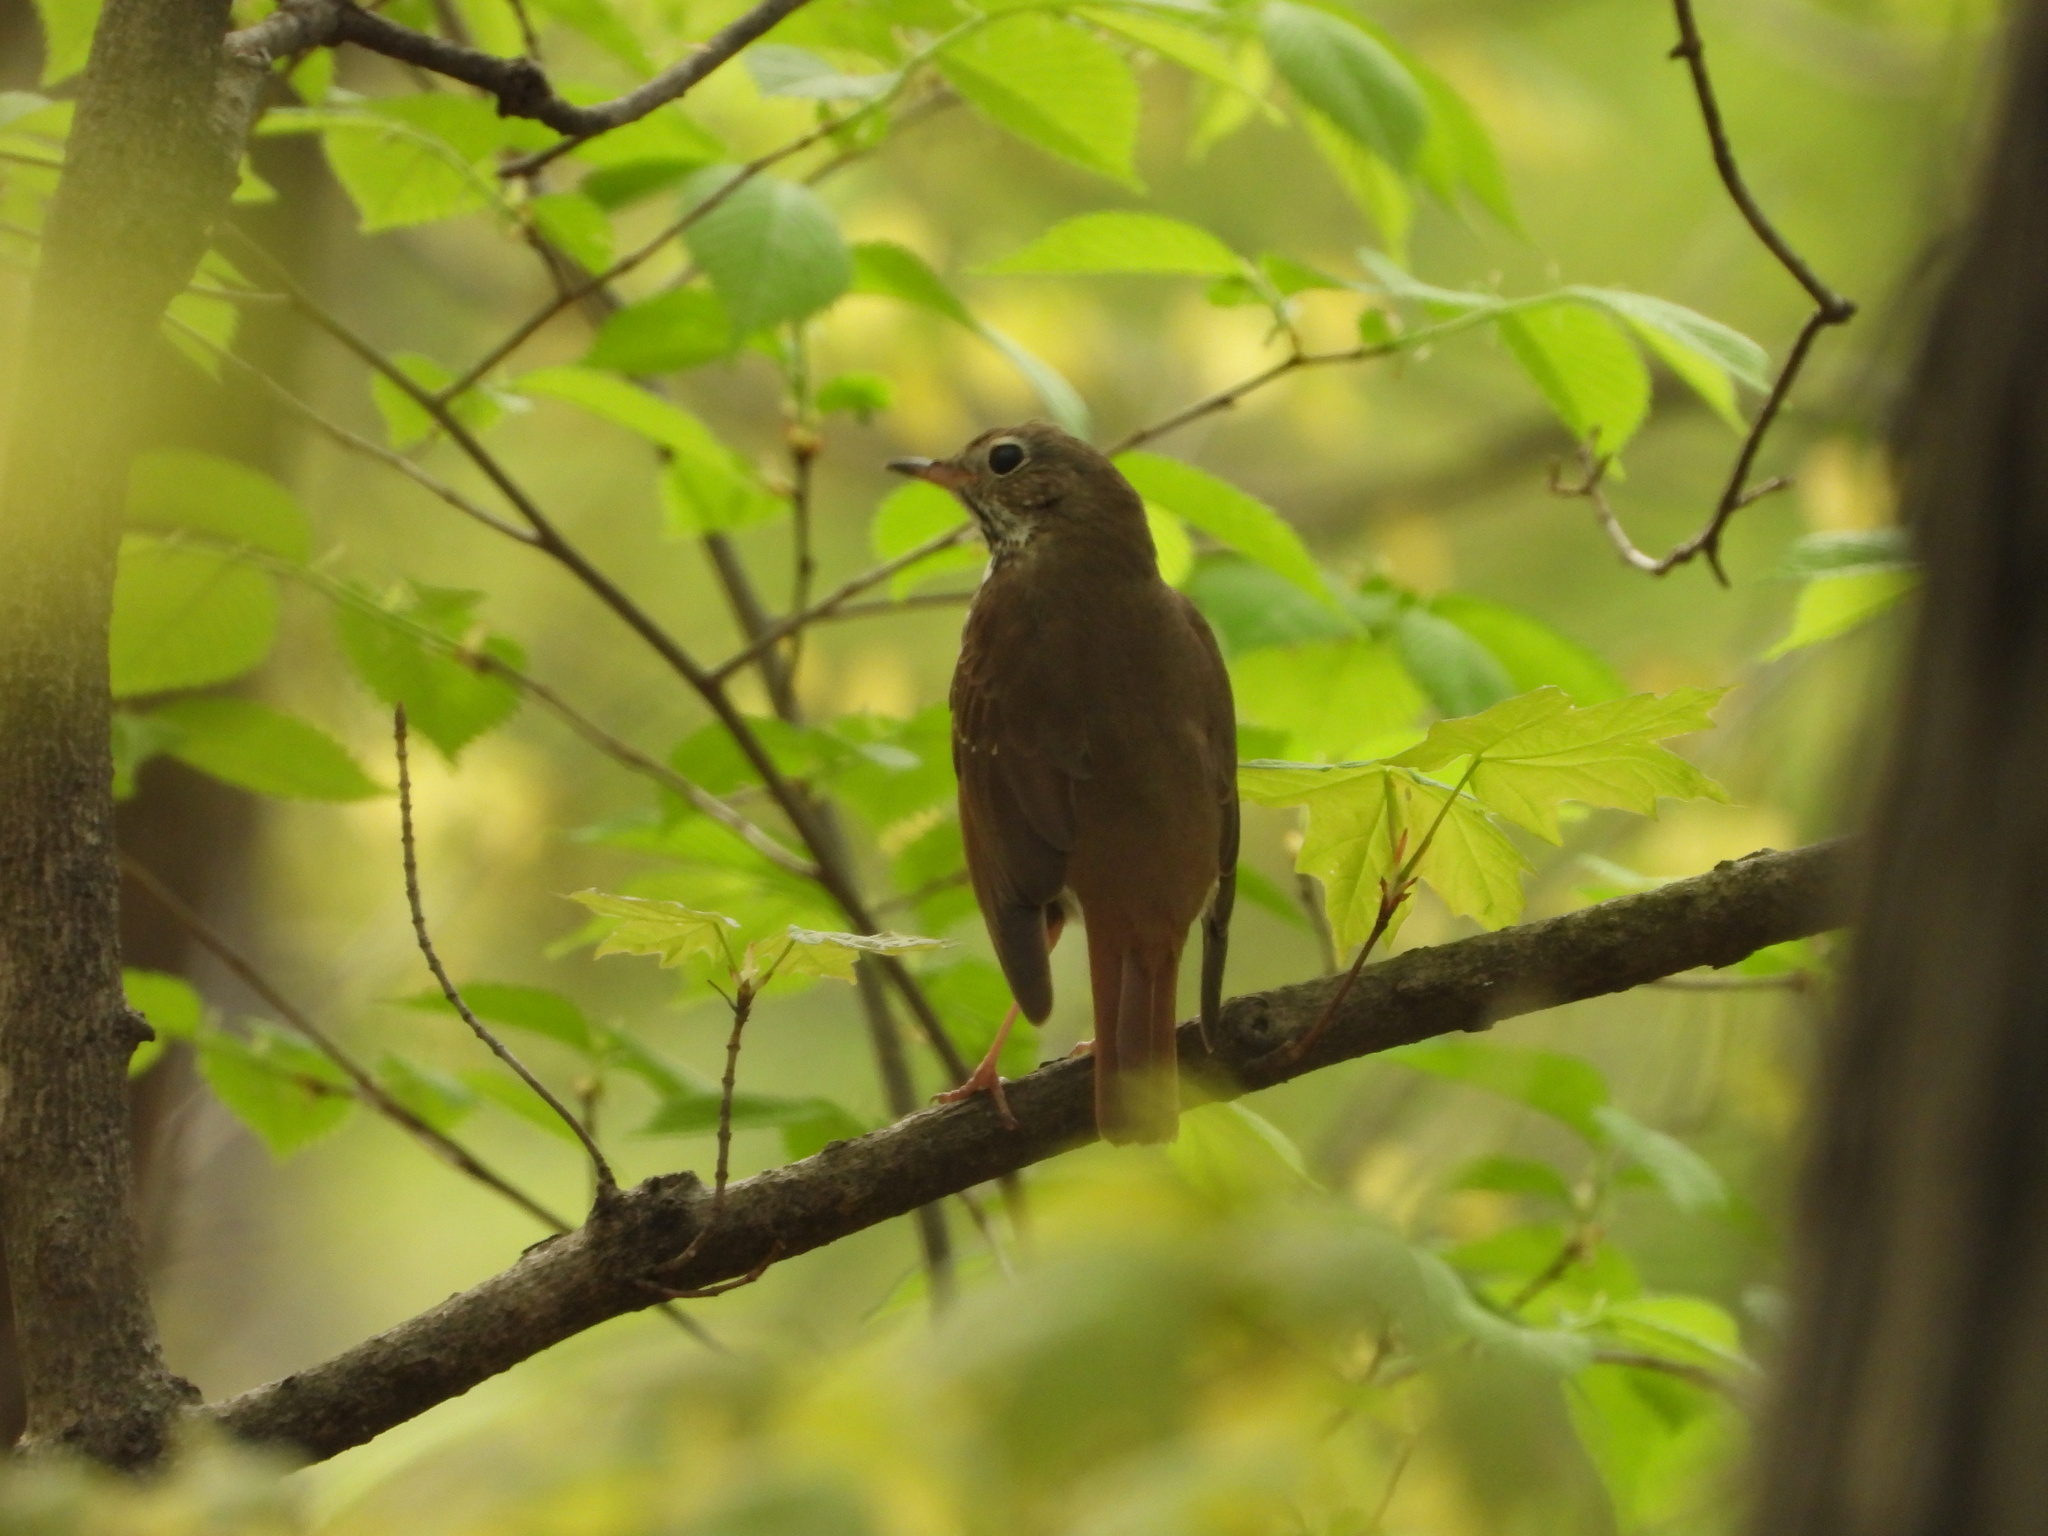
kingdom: Animalia
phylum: Chordata
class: Aves
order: Passeriformes
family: Turdidae
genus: Catharus
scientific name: Catharus guttatus
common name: Hermit thrush
